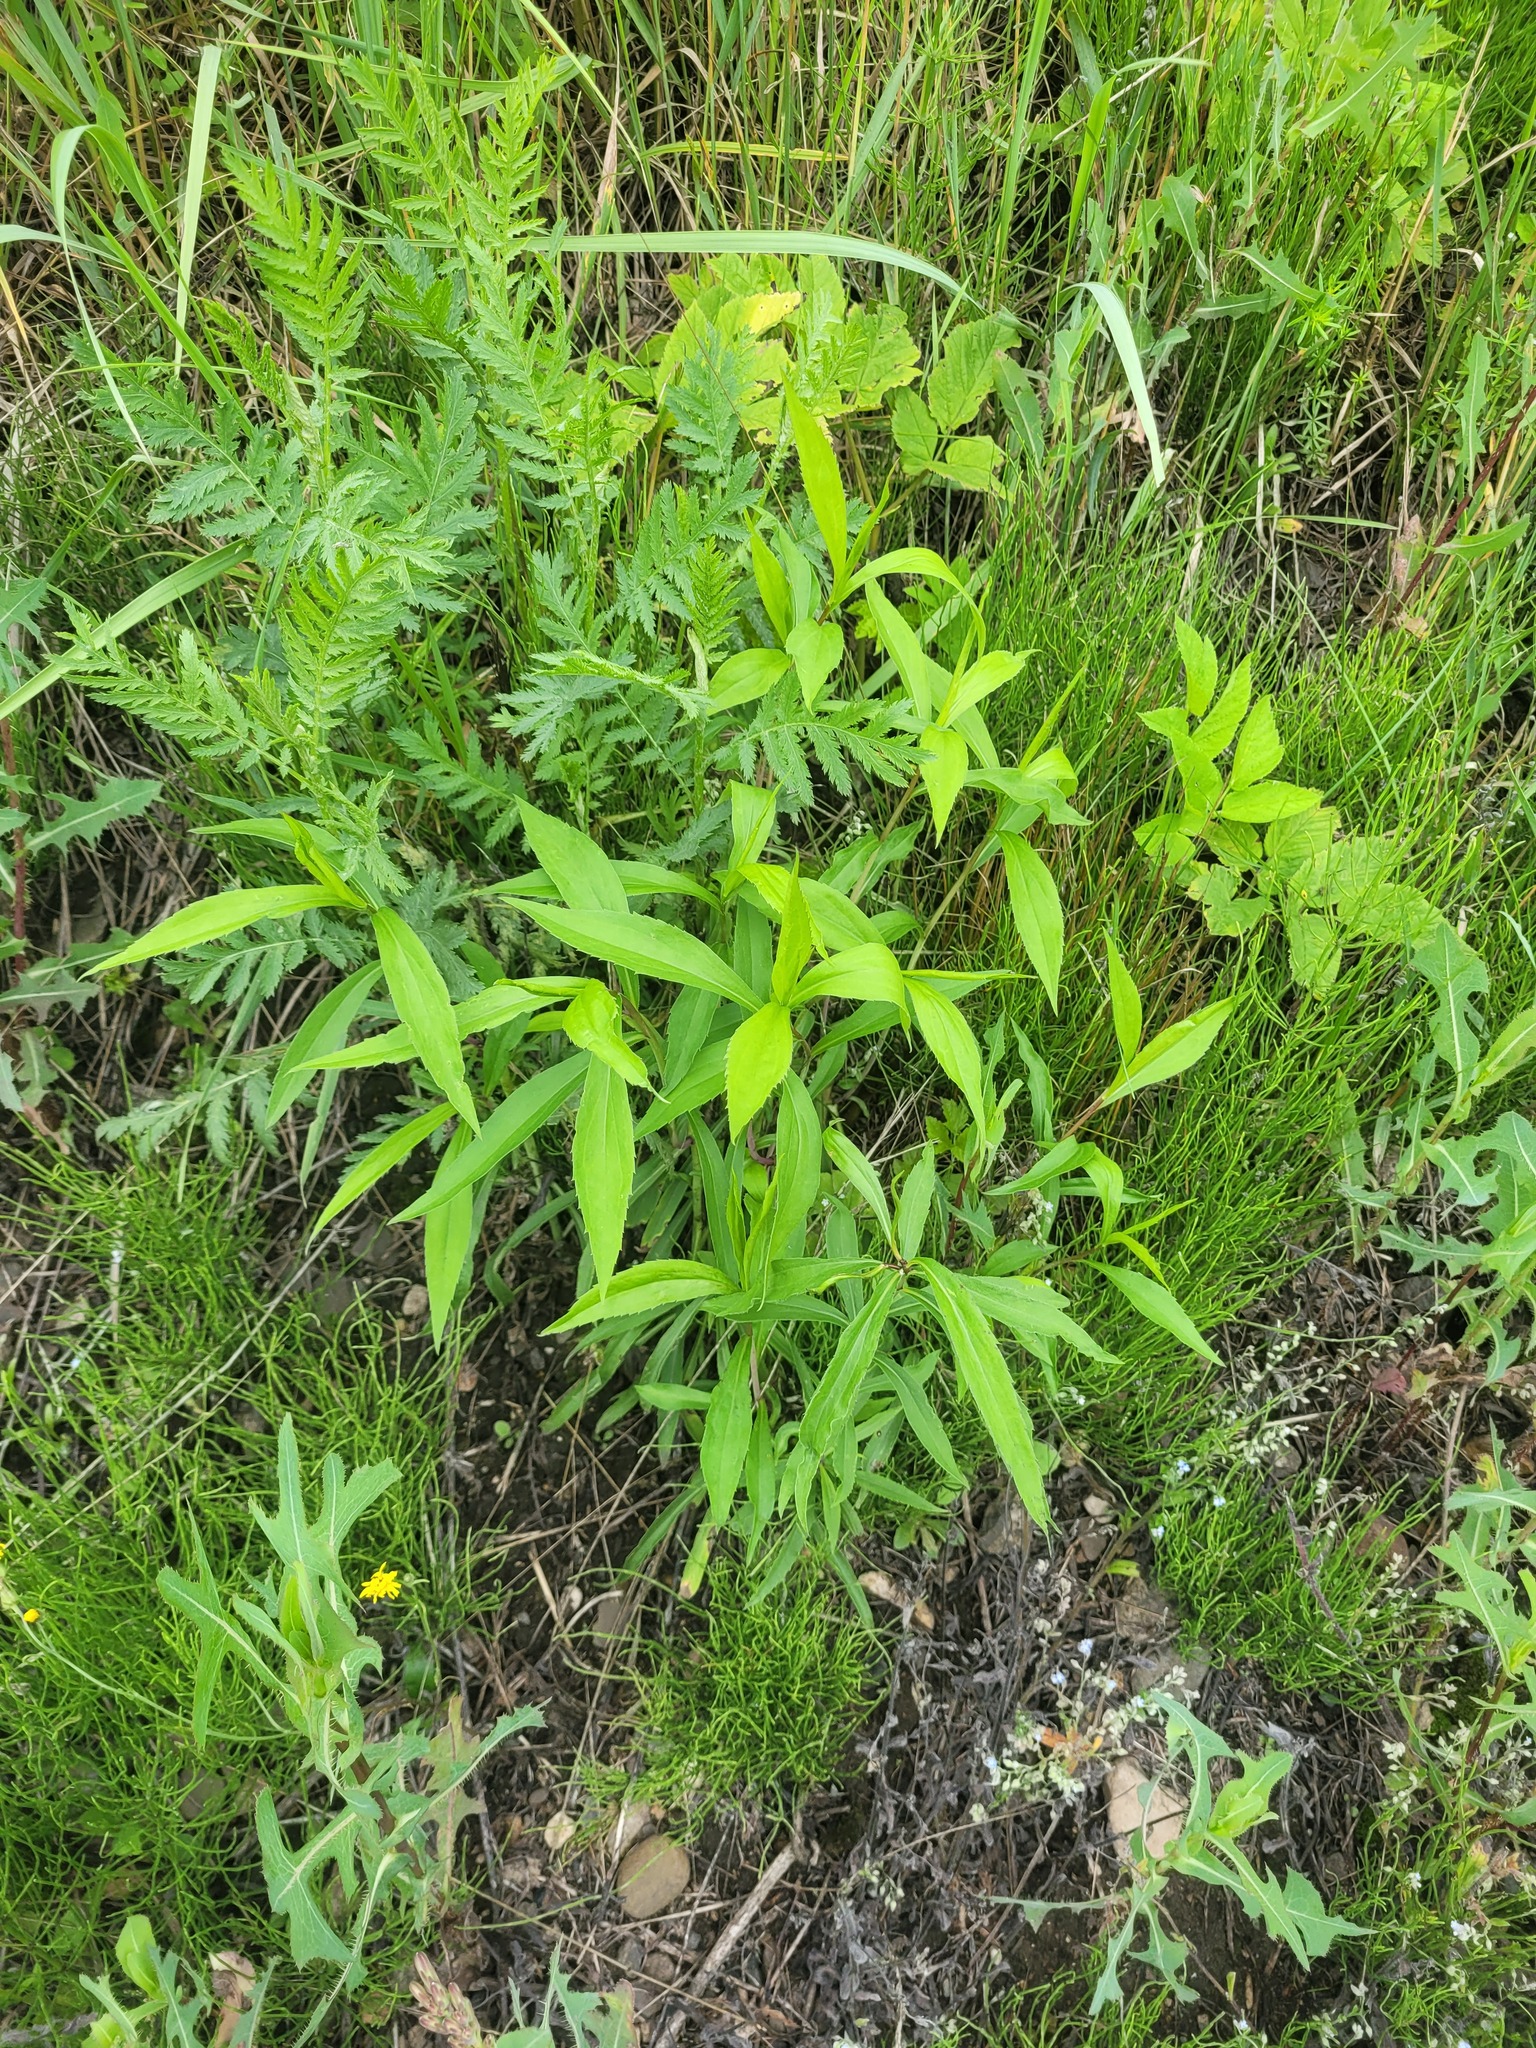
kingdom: Plantae
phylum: Tracheophyta
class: Magnoliopsida
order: Asterales
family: Asteraceae
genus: Solidago
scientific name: Solidago gigantea
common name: Giant goldenrod
